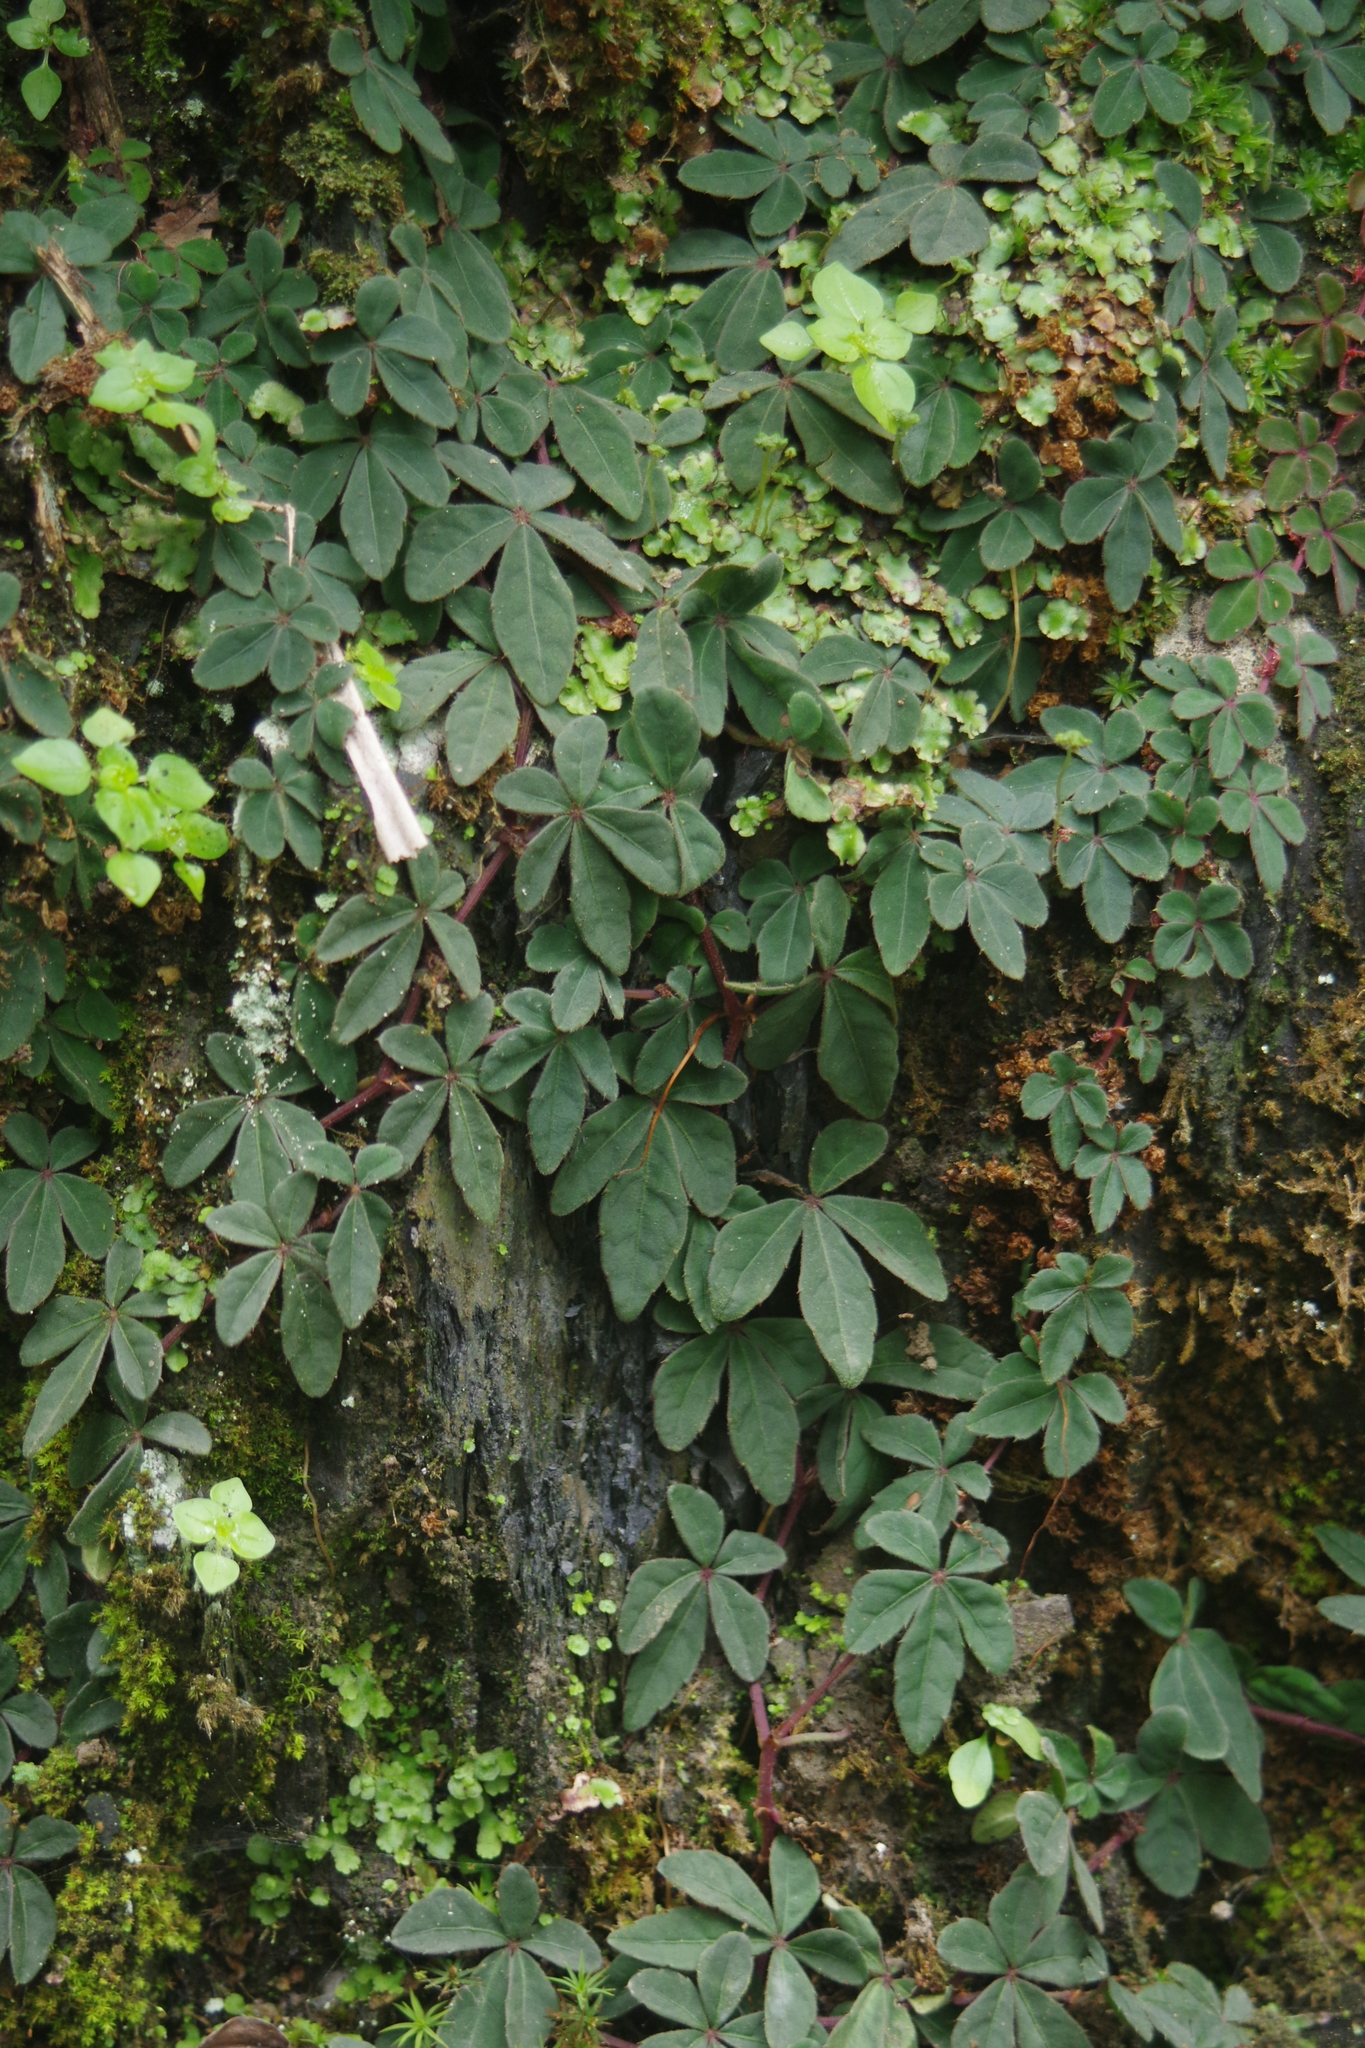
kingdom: Plantae
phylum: Tracheophyta
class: Magnoliopsida
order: Vitales
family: Vitaceae
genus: Tetrastigma
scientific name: Tetrastigma obtectum
